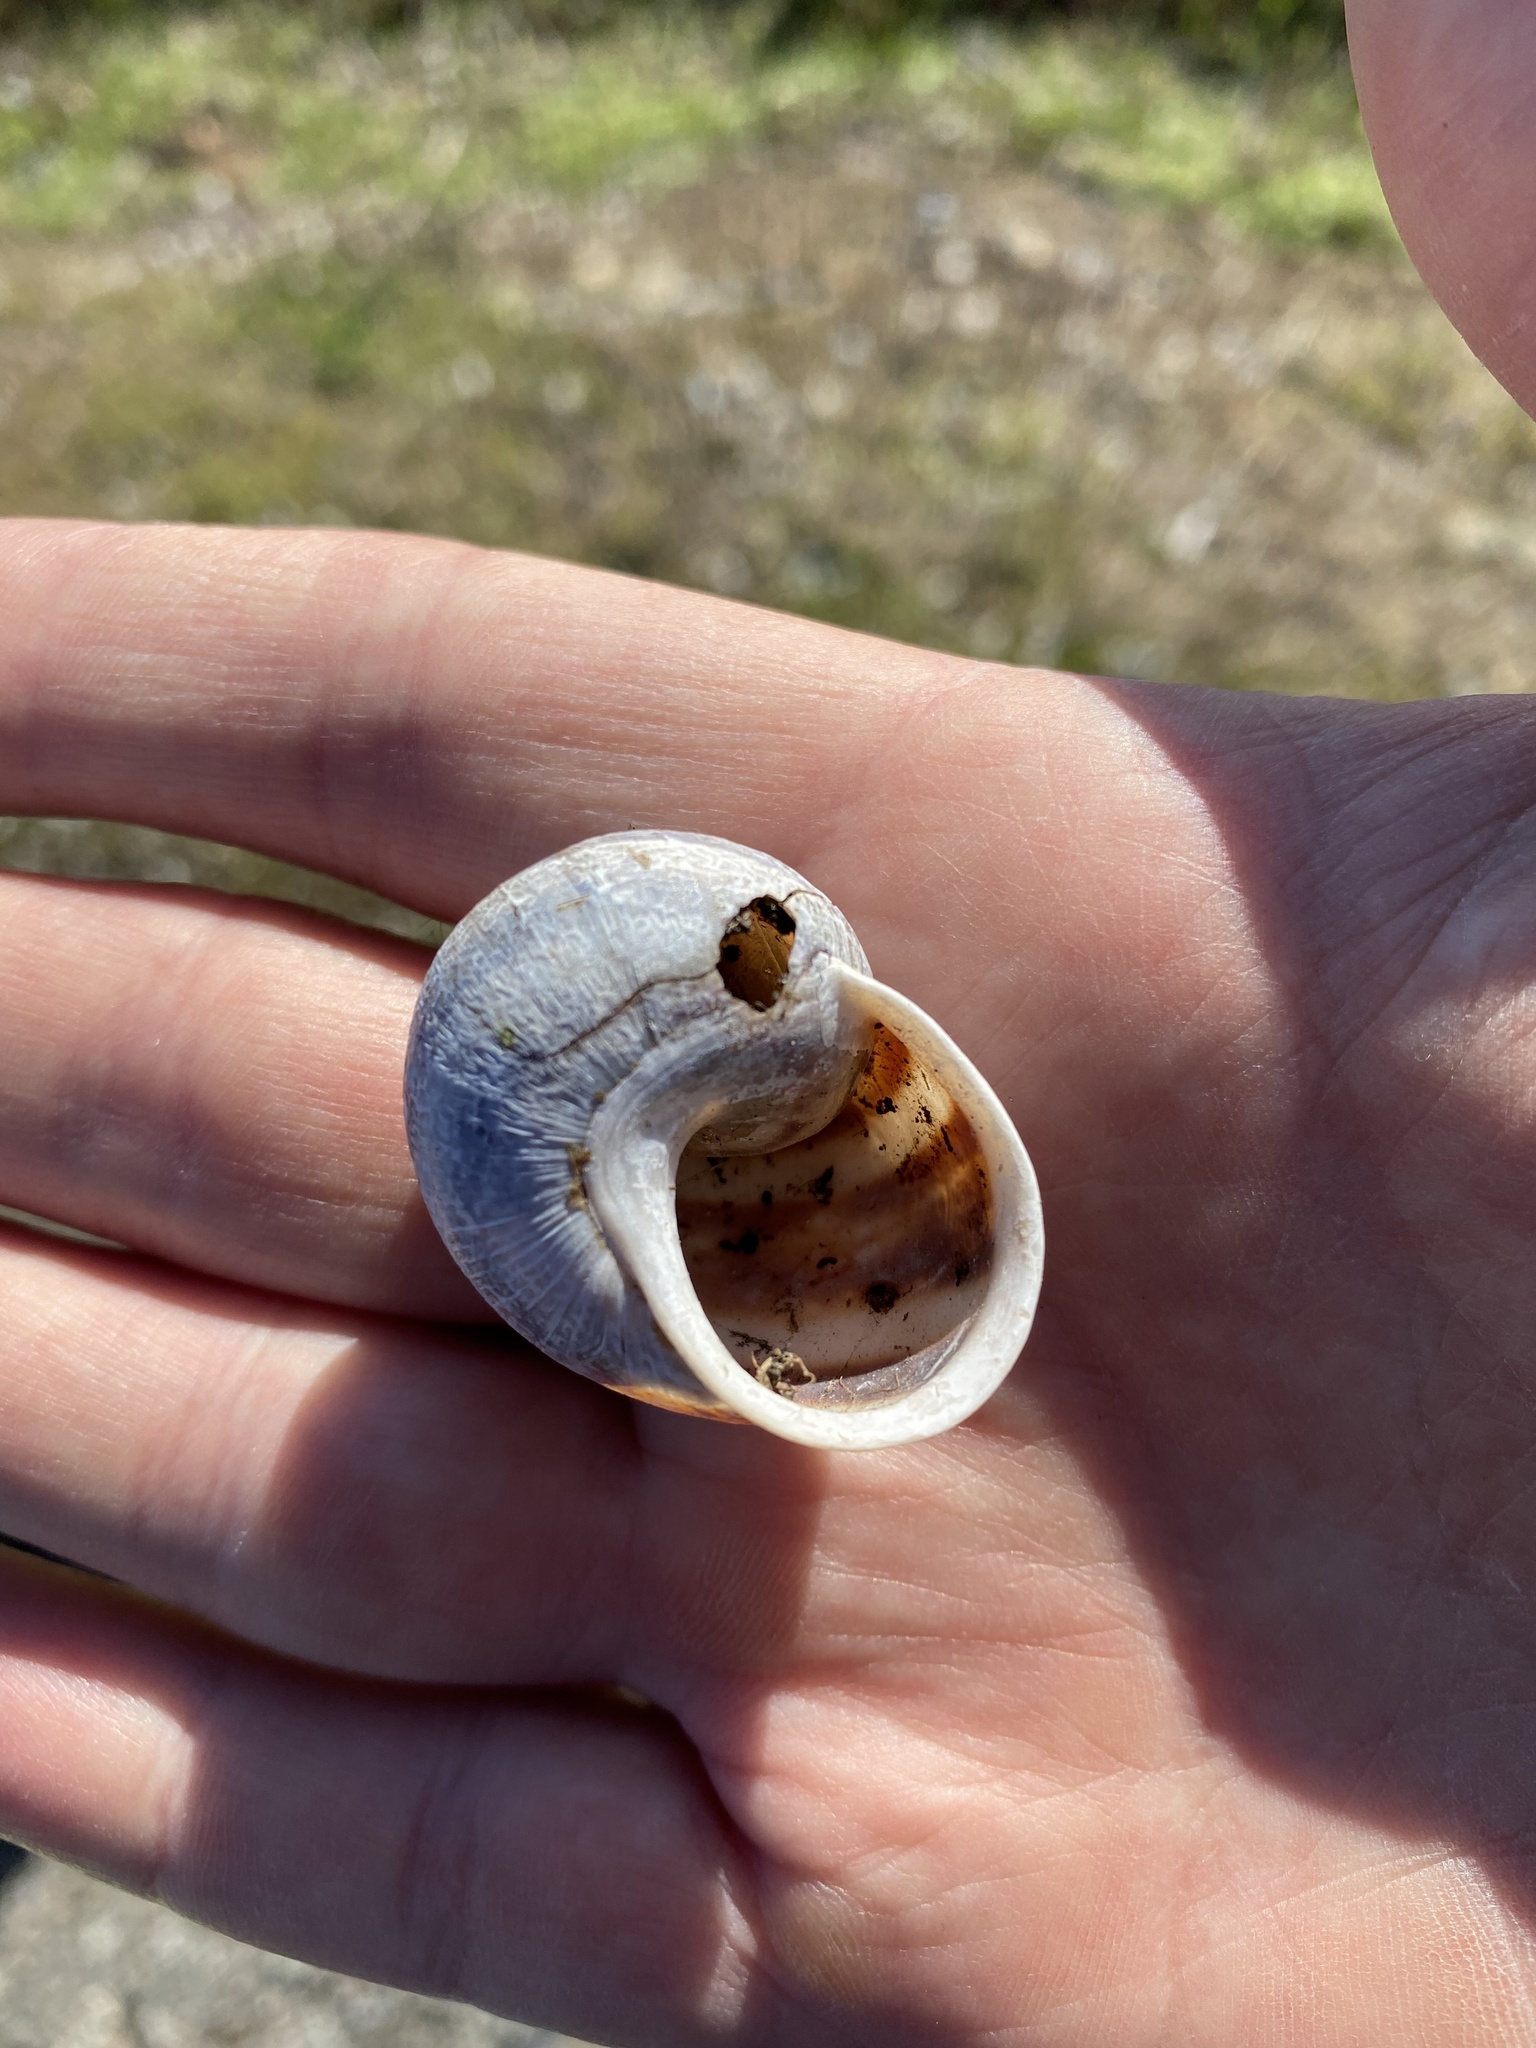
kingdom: Animalia
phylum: Mollusca
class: Gastropoda
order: Stylommatophora
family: Helicidae
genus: Cornu
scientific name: Cornu aspersum
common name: Brown garden snail
